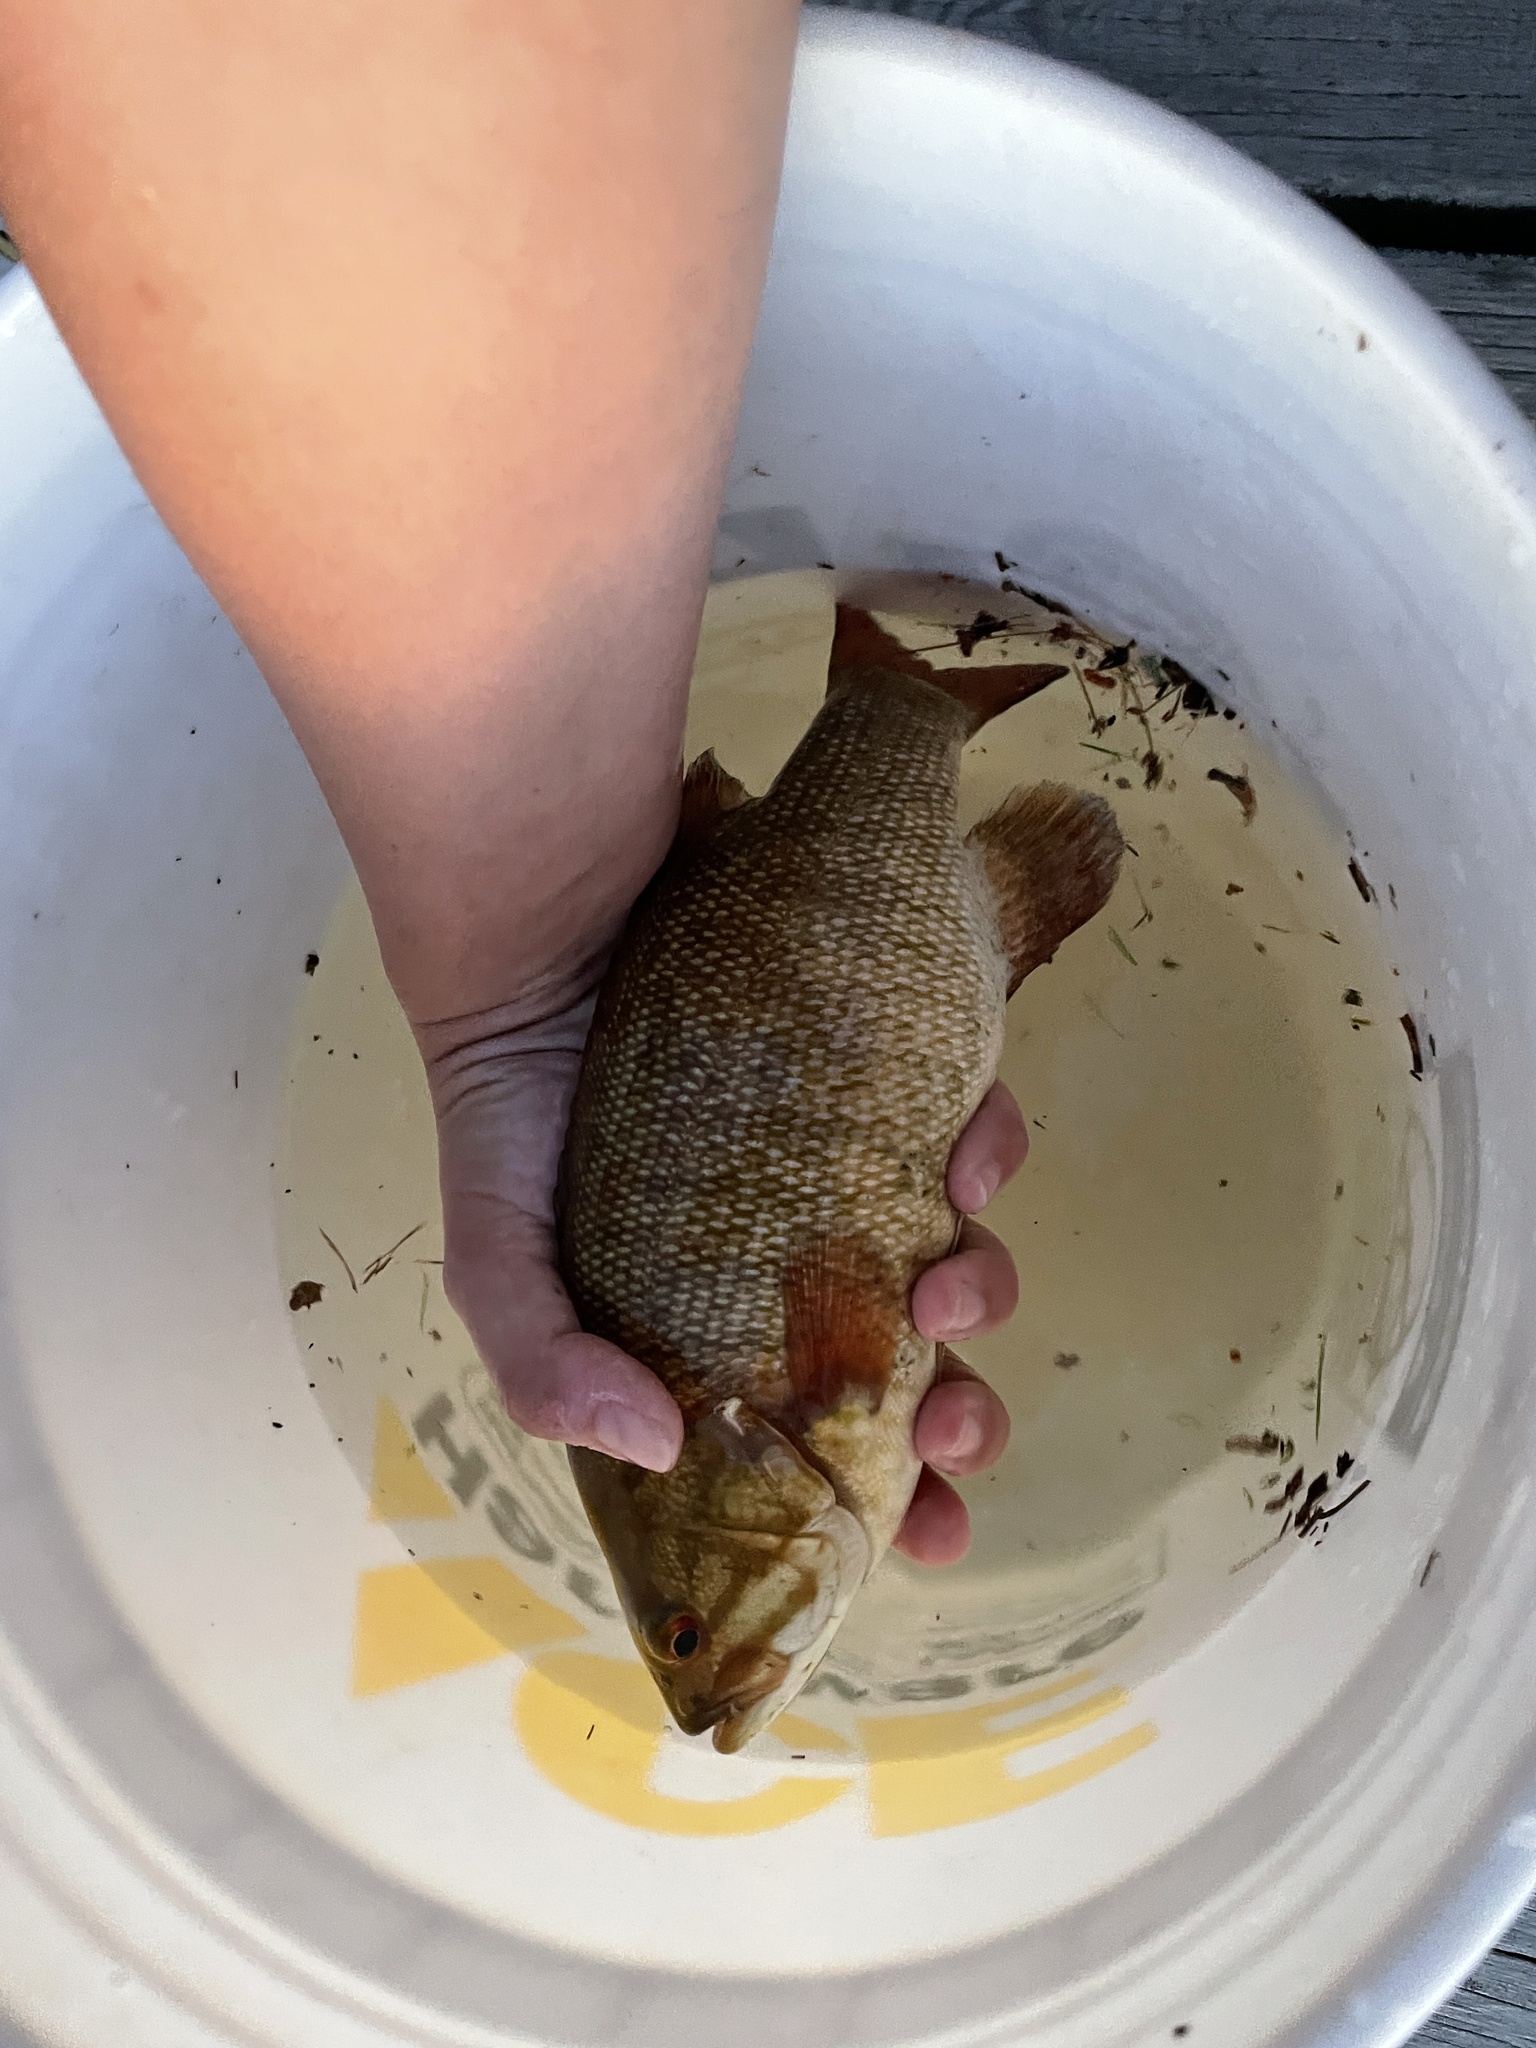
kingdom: Animalia
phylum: Chordata
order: Perciformes
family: Centrarchidae
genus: Micropterus
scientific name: Micropterus dolomieu
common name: Smallmouth bass
